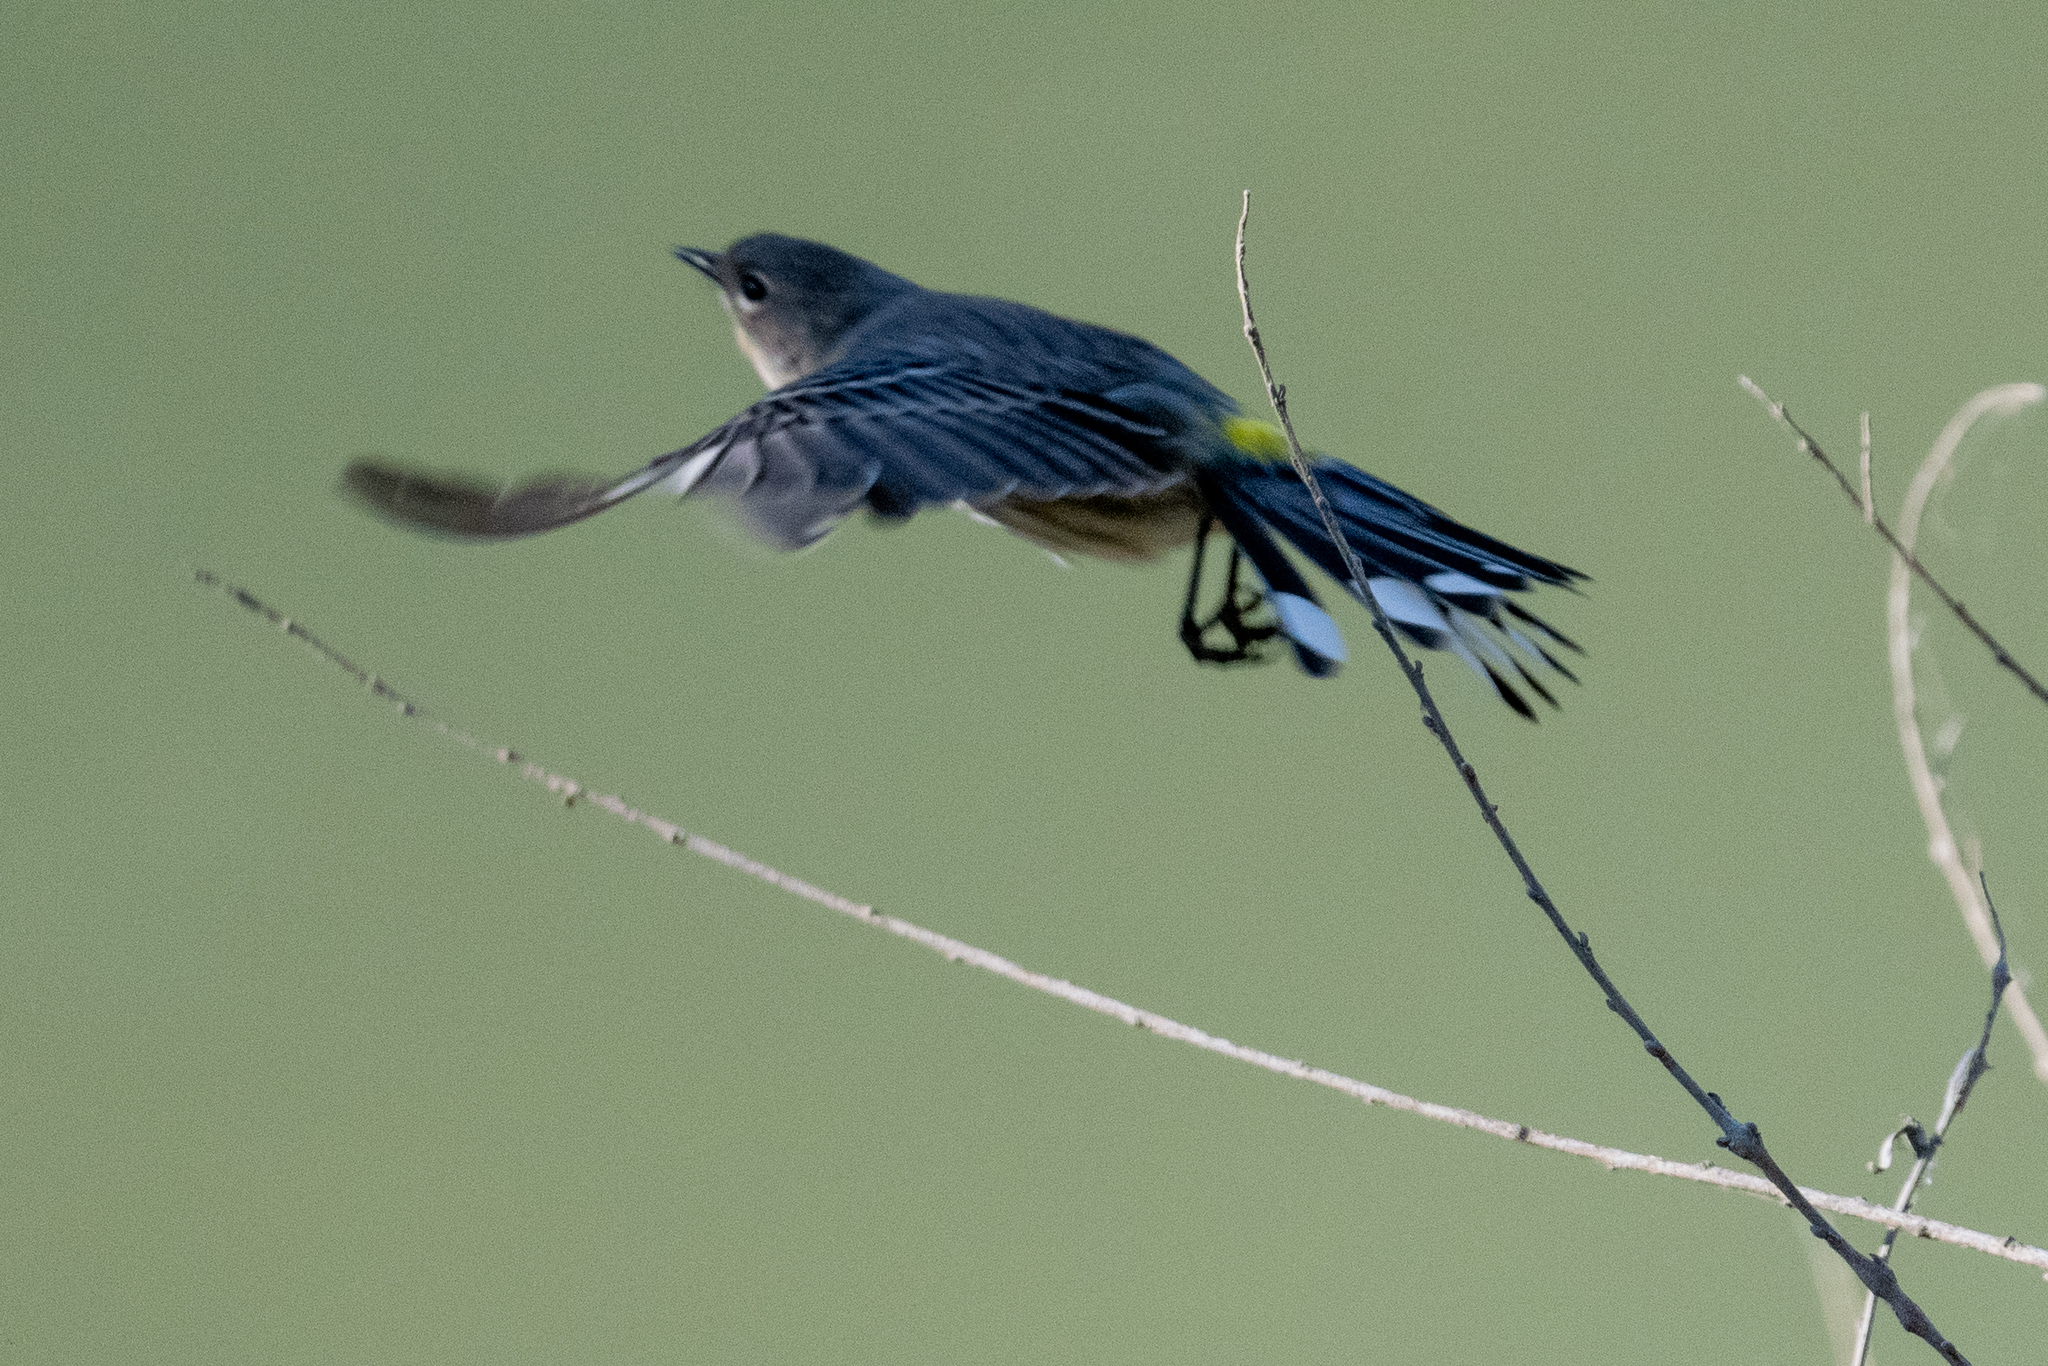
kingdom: Animalia
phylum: Chordata
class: Aves
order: Passeriformes
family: Parulidae
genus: Setophaga
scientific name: Setophaga coronata
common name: Myrtle warbler
